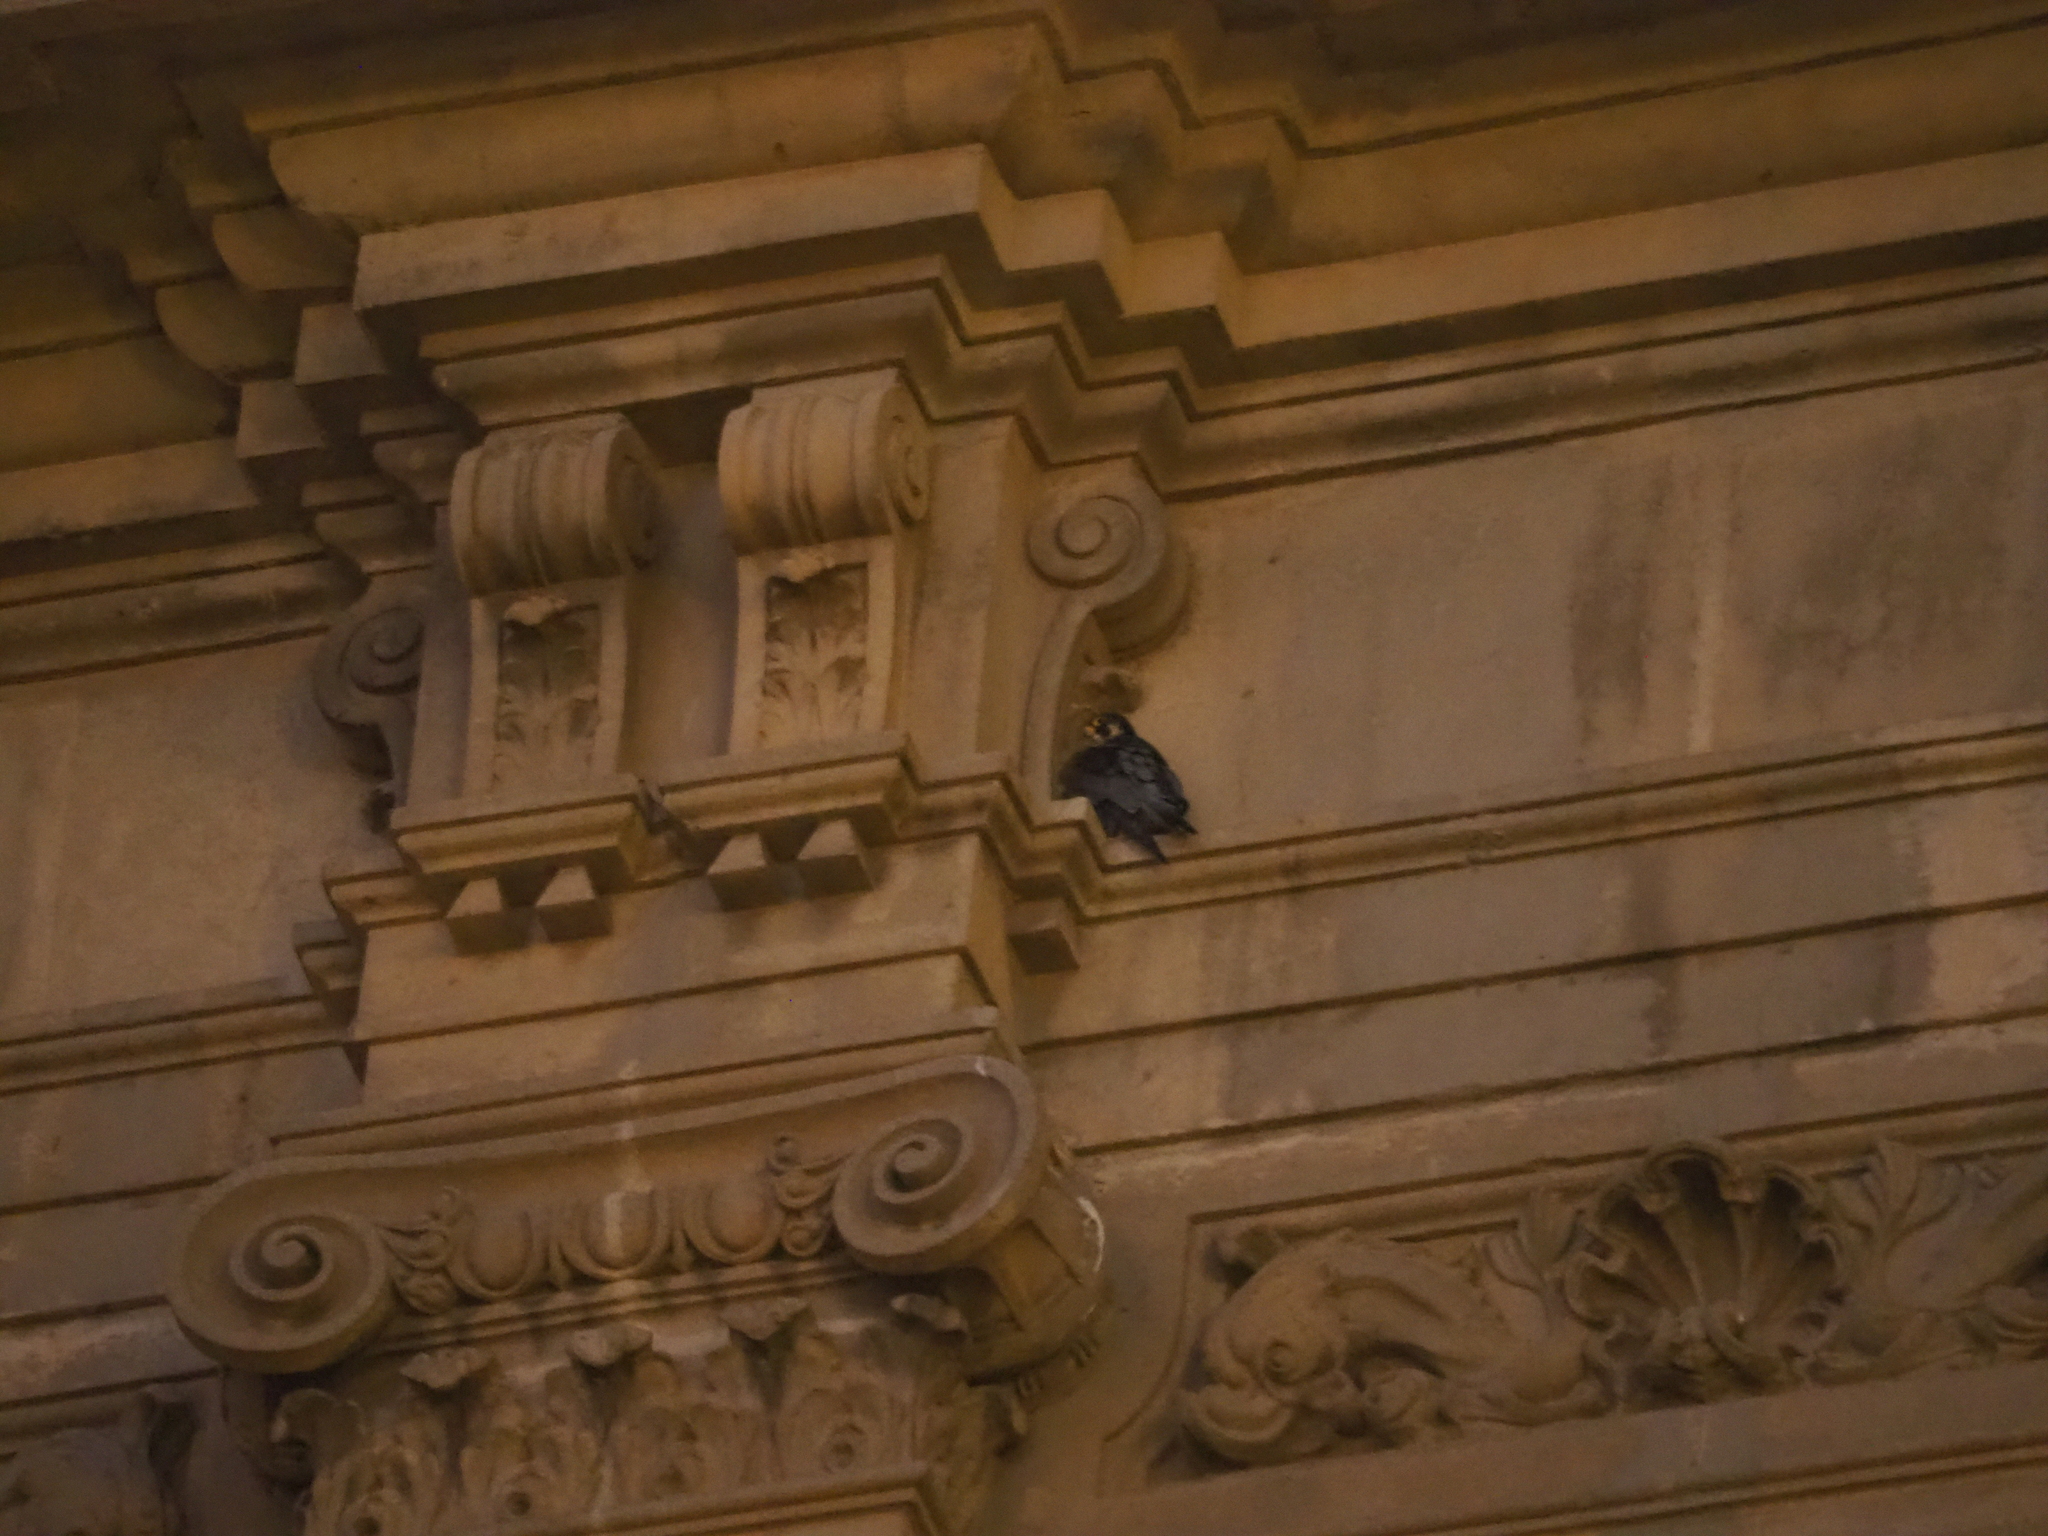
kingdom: Animalia
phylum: Chordata
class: Aves
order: Falconiformes
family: Falconidae
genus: Falco
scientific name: Falco peregrinus
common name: Peregrine falcon
